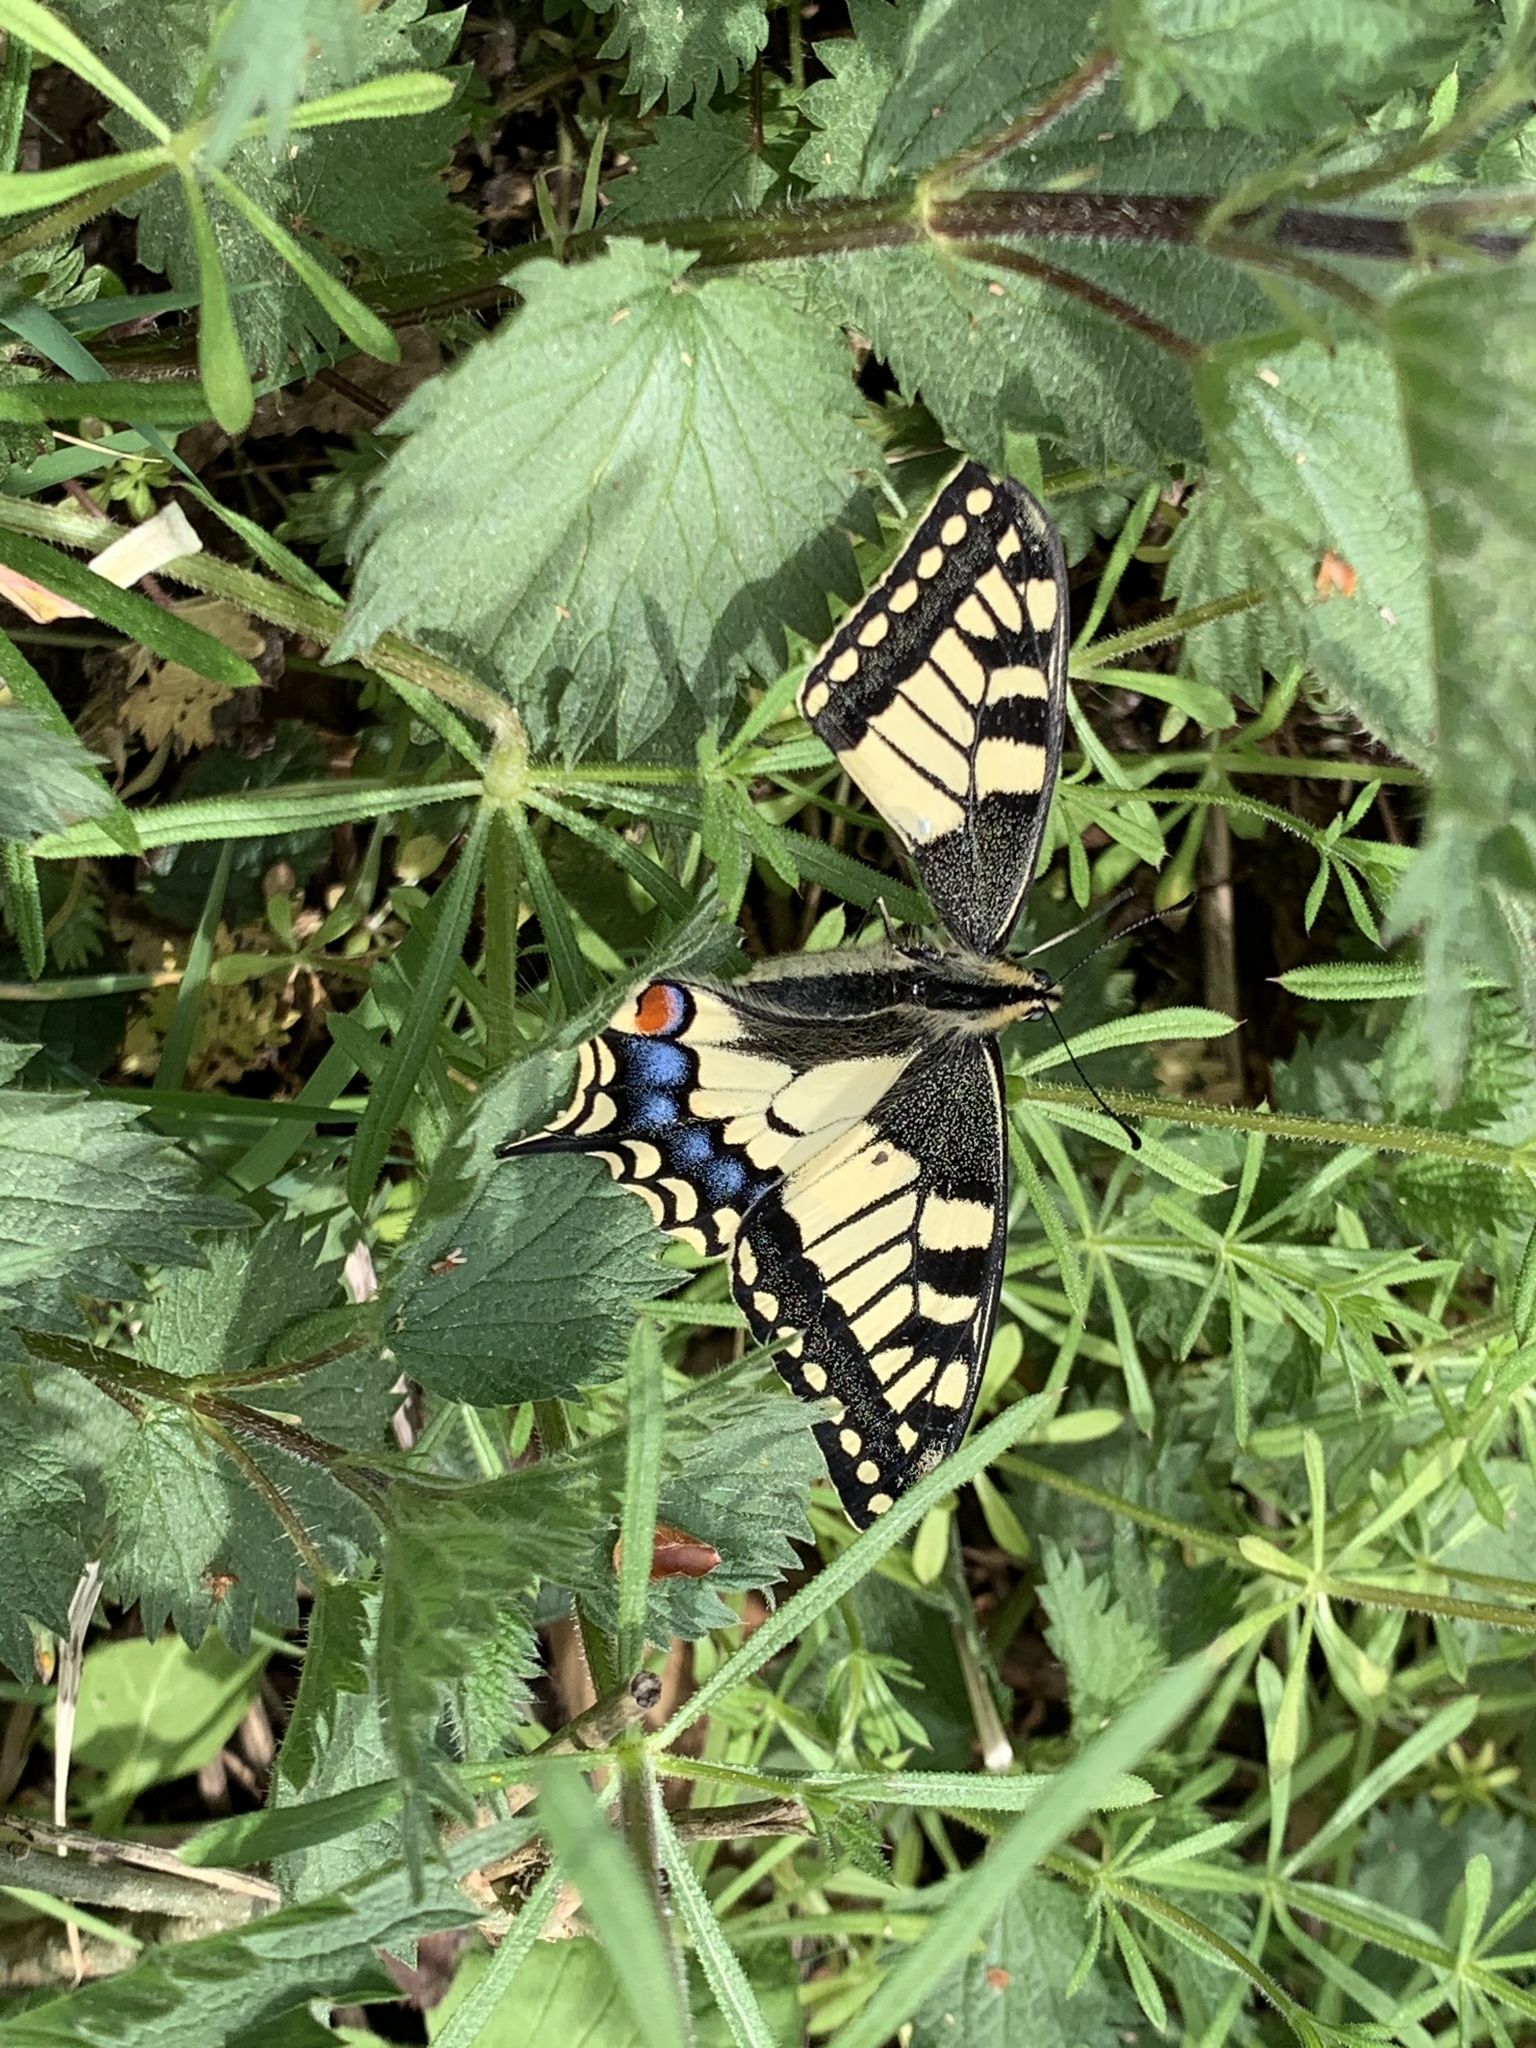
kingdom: Animalia
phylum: Arthropoda
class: Insecta
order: Lepidoptera
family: Papilionidae
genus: Papilio
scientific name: Papilio machaon
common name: Swallowtail
